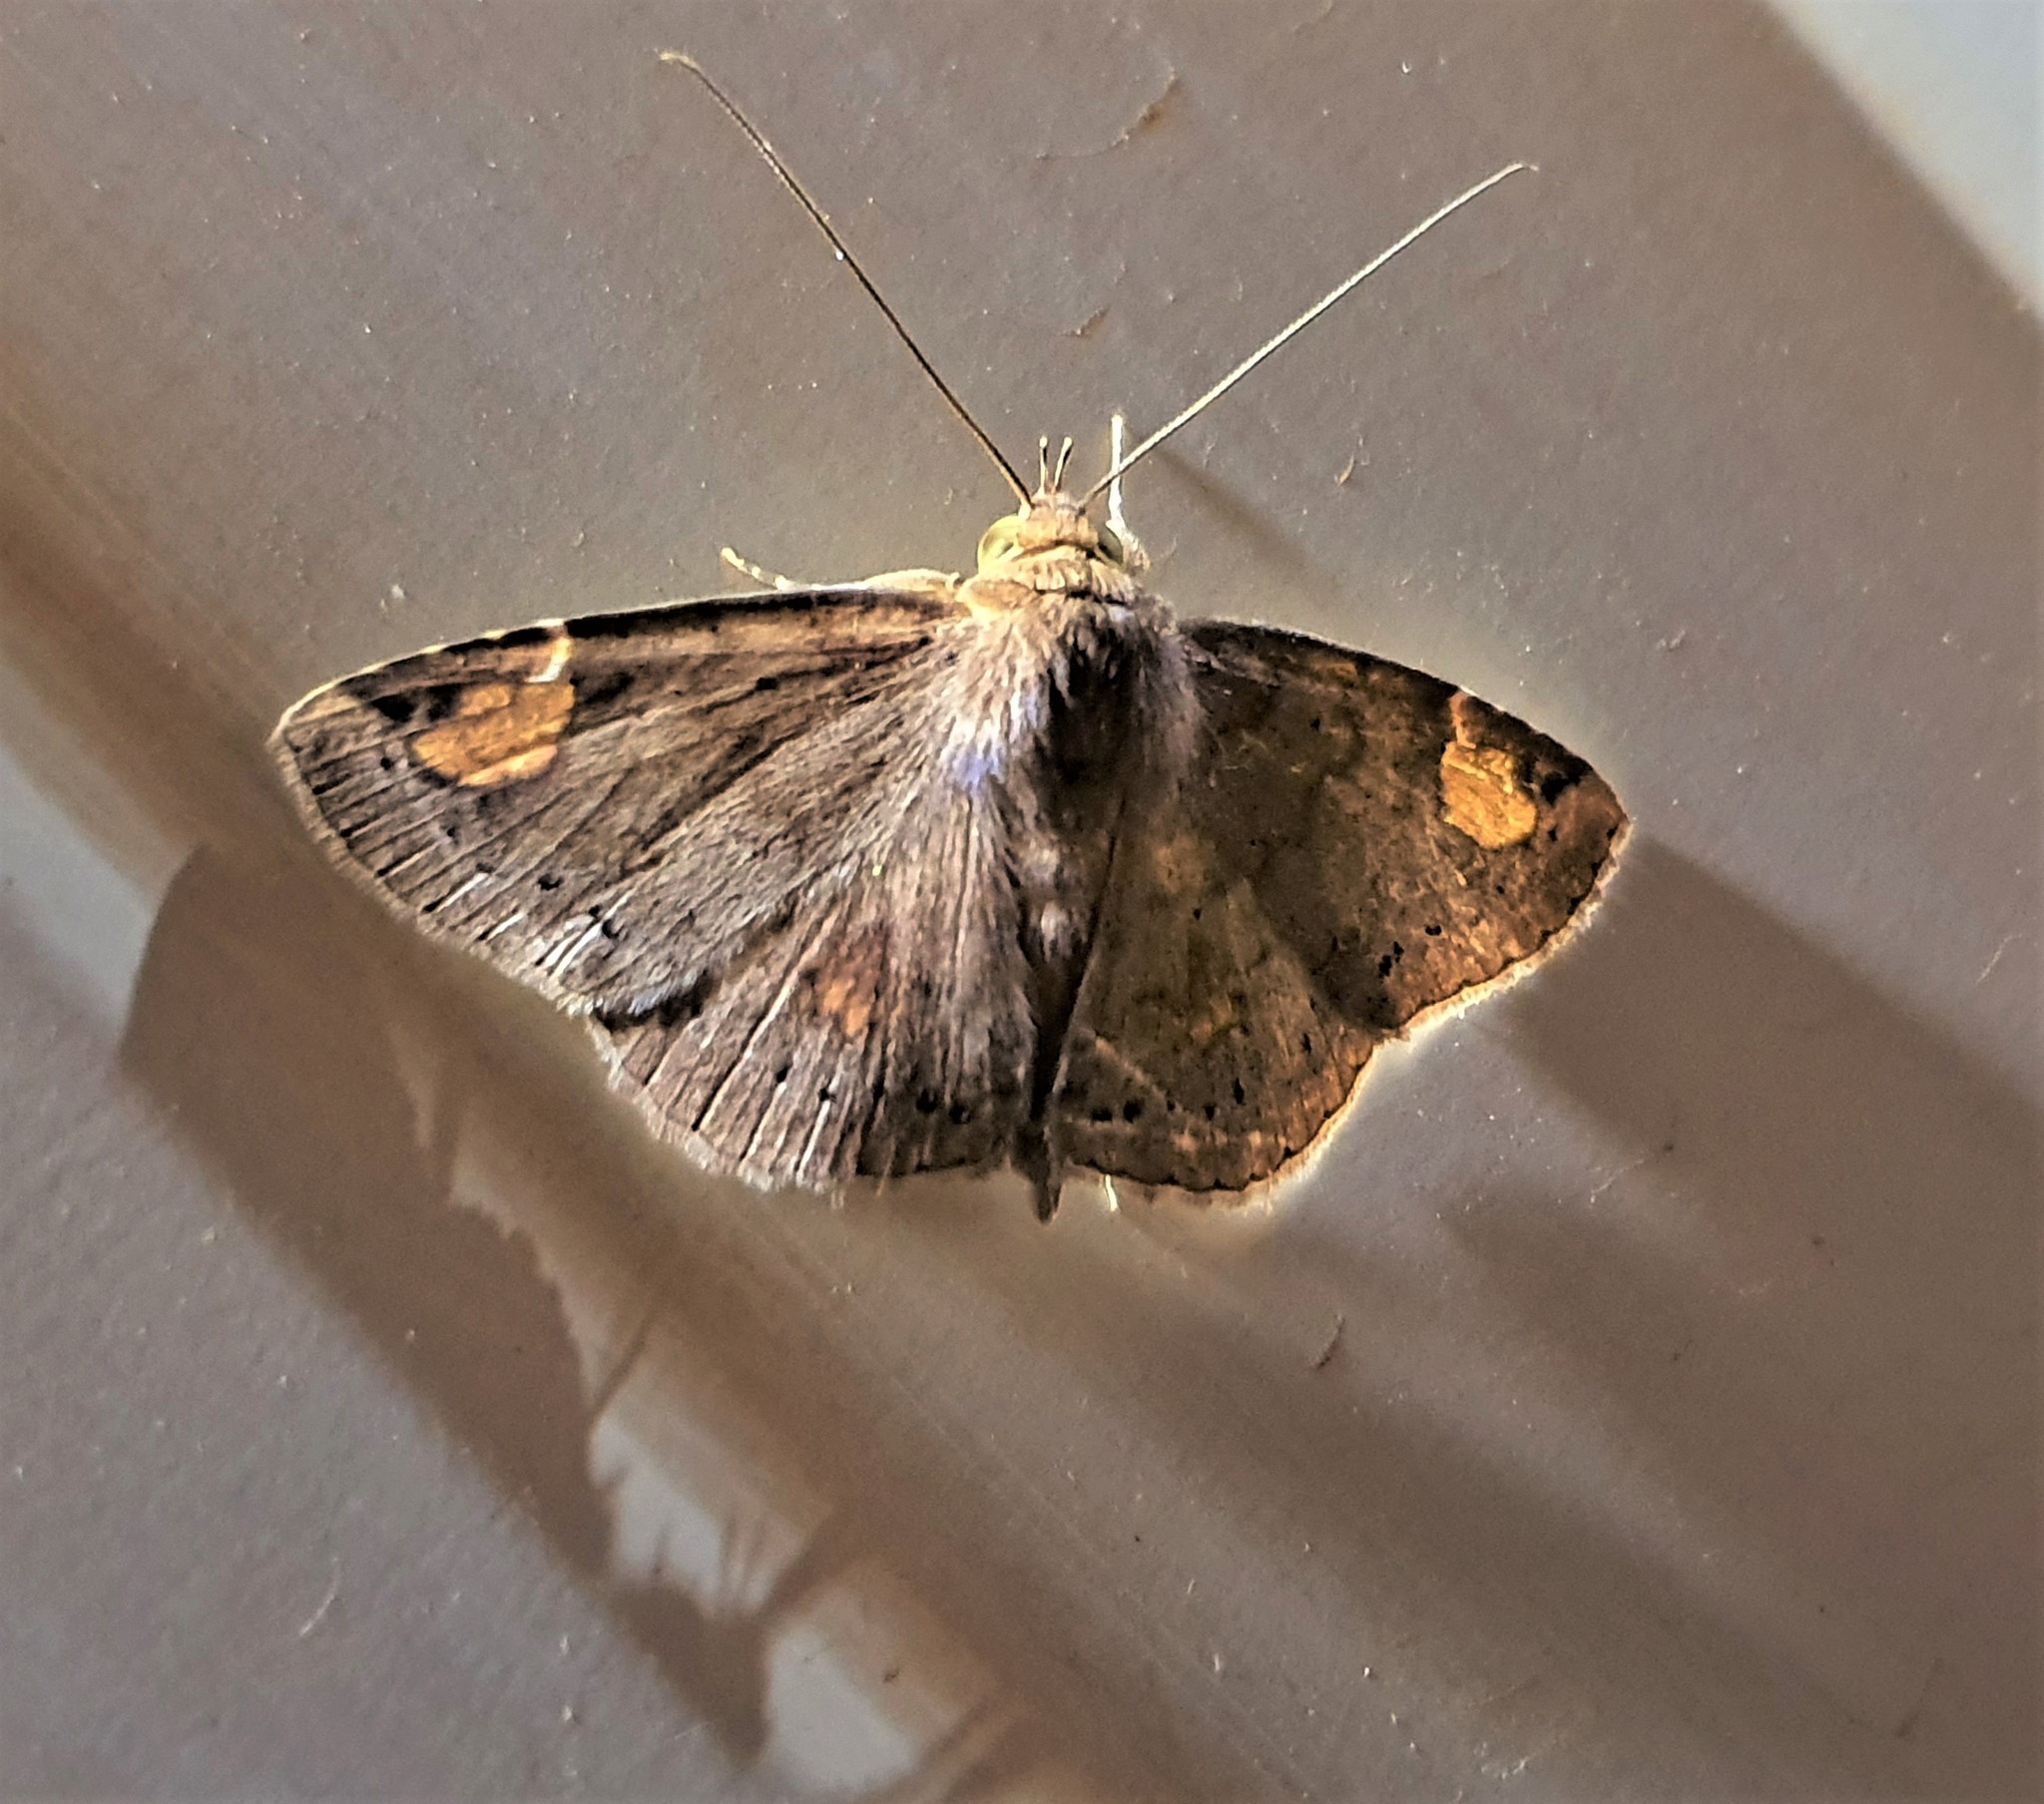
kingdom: Animalia
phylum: Arthropoda
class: Insecta
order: Lepidoptera
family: Erebidae
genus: Antiblemma
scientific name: Antiblemma imitans
